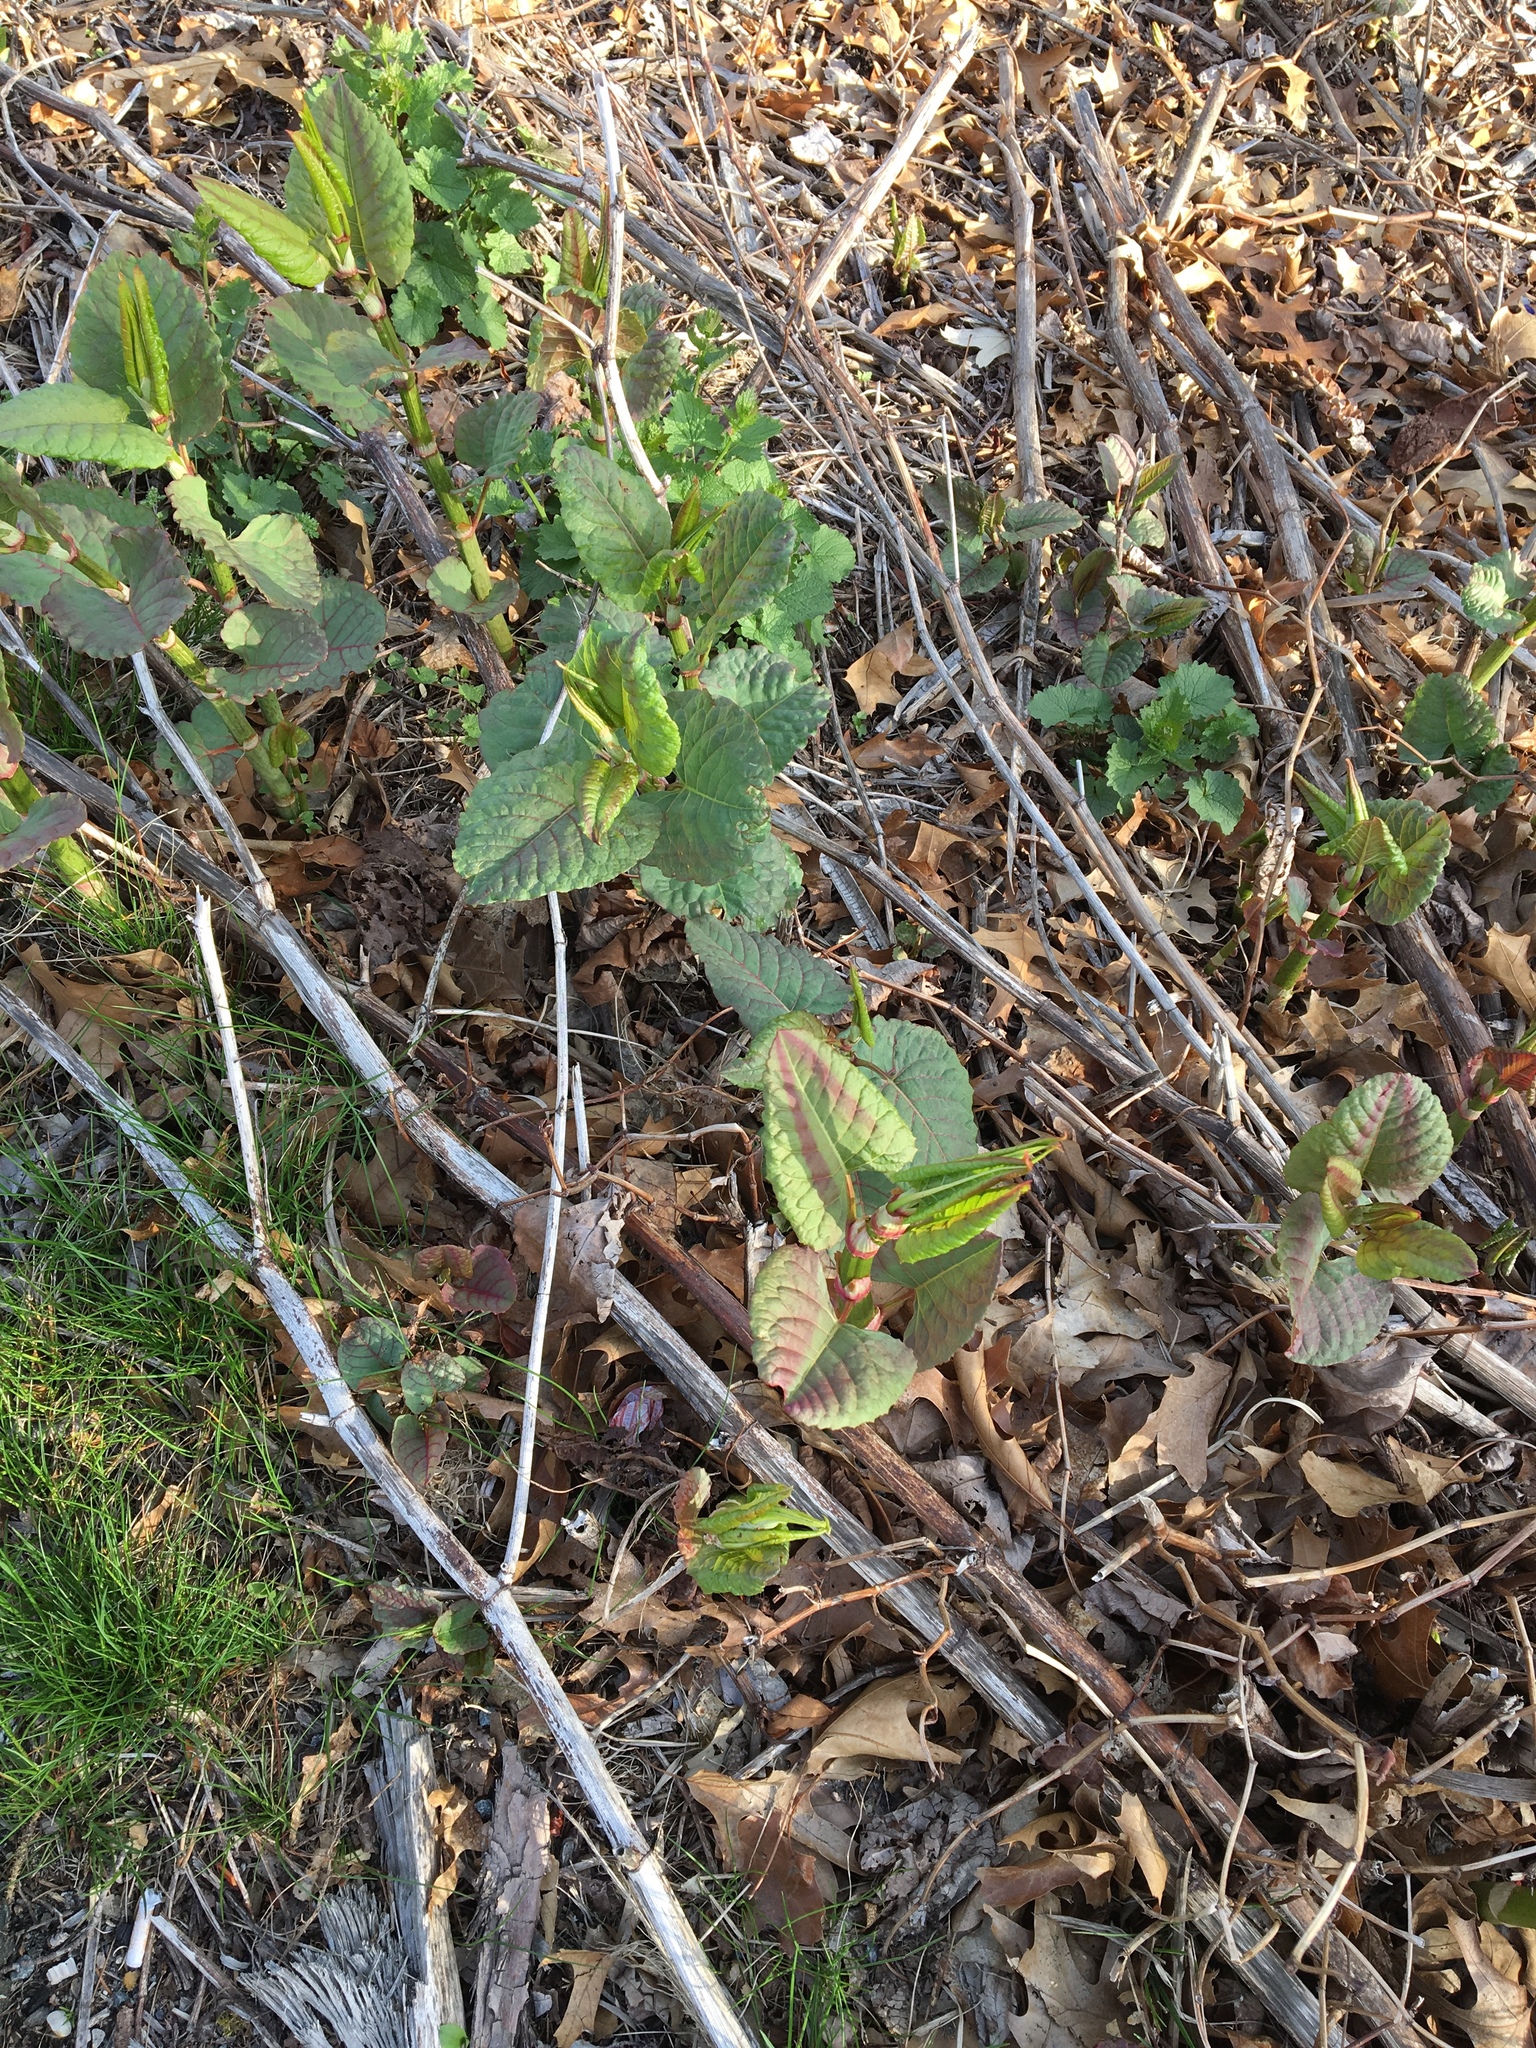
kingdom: Plantae
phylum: Tracheophyta
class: Magnoliopsida
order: Caryophyllales
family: Polygonaceae
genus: Reynoutria
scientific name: Reynoutria japonica
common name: Japanese knotweed
